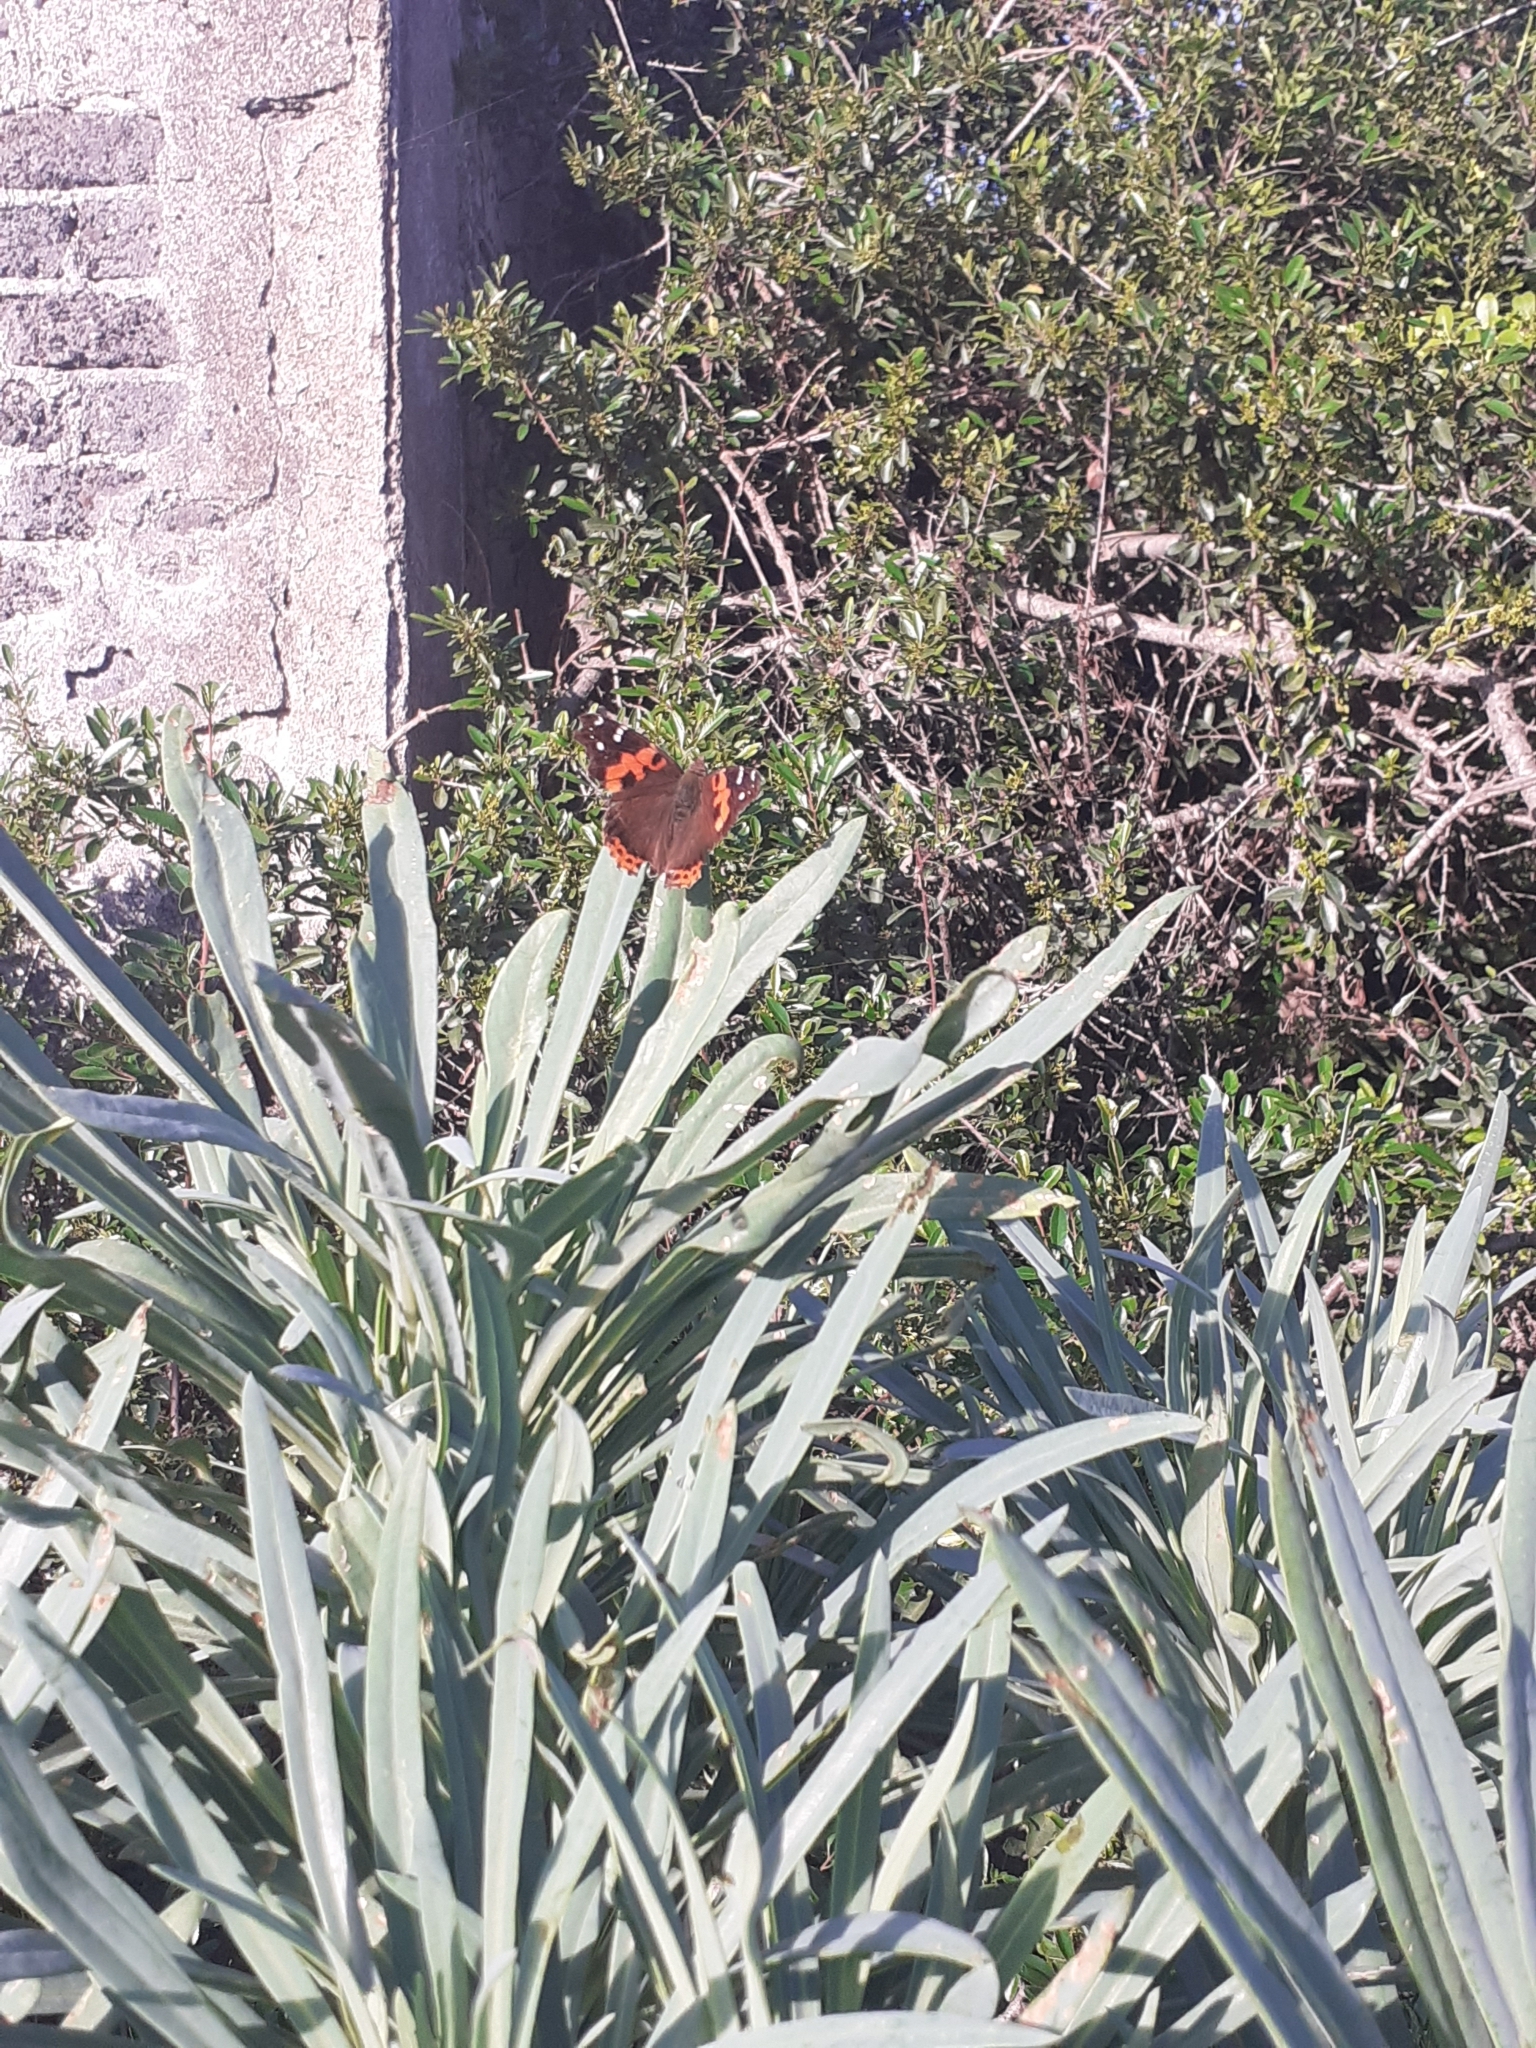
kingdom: Animalia
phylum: Arthropoda
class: Insecta
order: Lepidoptera
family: Nymphalidae
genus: Vanessa
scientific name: Vanessa vulcania
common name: Canary red admiral
